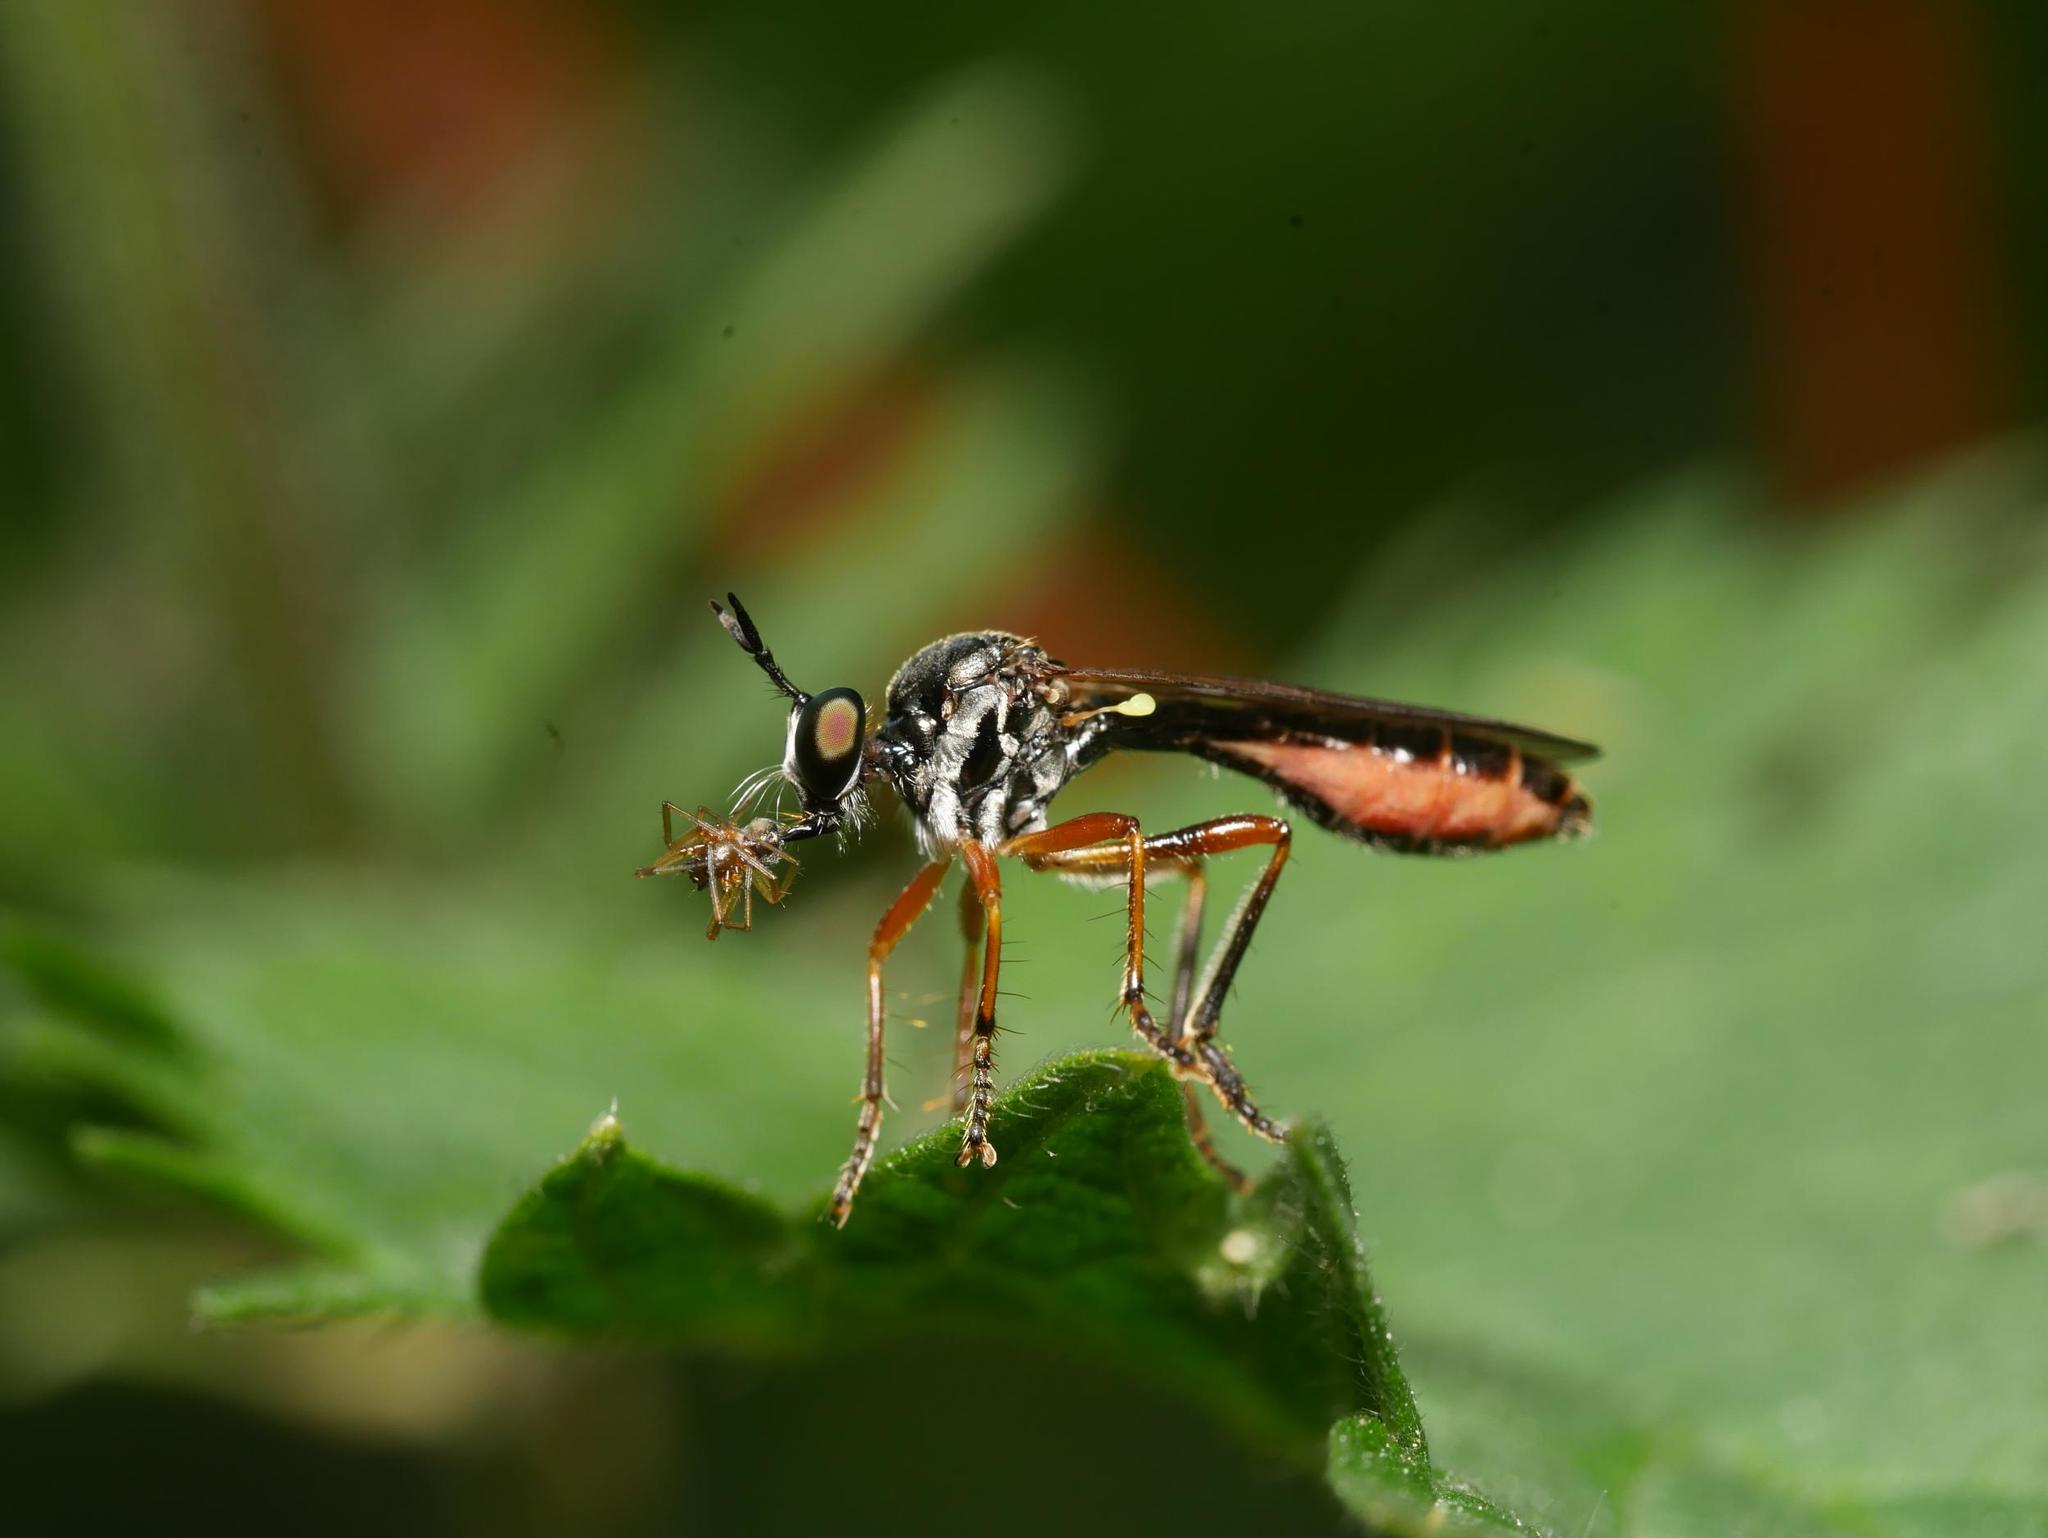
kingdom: Animalia
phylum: Arthropoda
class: Insecta
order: Diptera
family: Asilidae
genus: Dioctria
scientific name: Dioctria hyalipennis
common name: Stripe-legged robberfly
